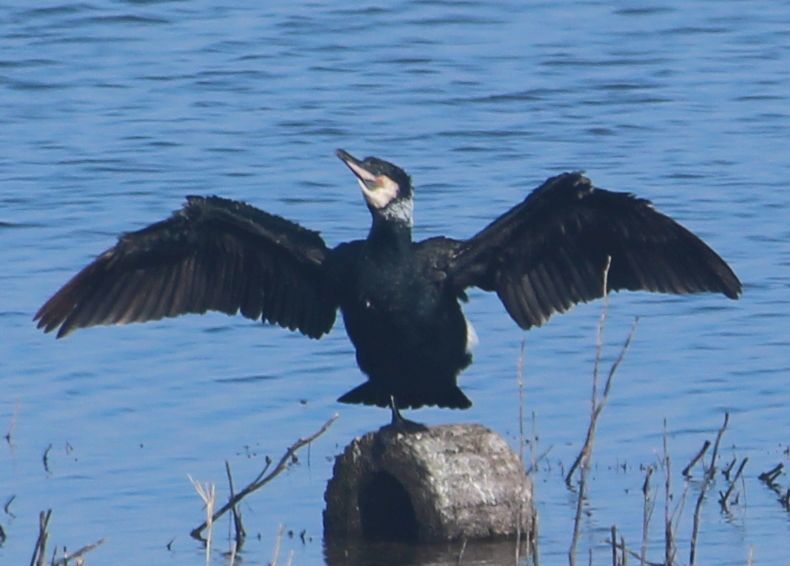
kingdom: Animalia
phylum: Chordata
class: Aves
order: Suliformes
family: Phalacrocoracidae
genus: Phalacrocorax
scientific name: Phalacrocorax carbo
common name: Great cormorant
